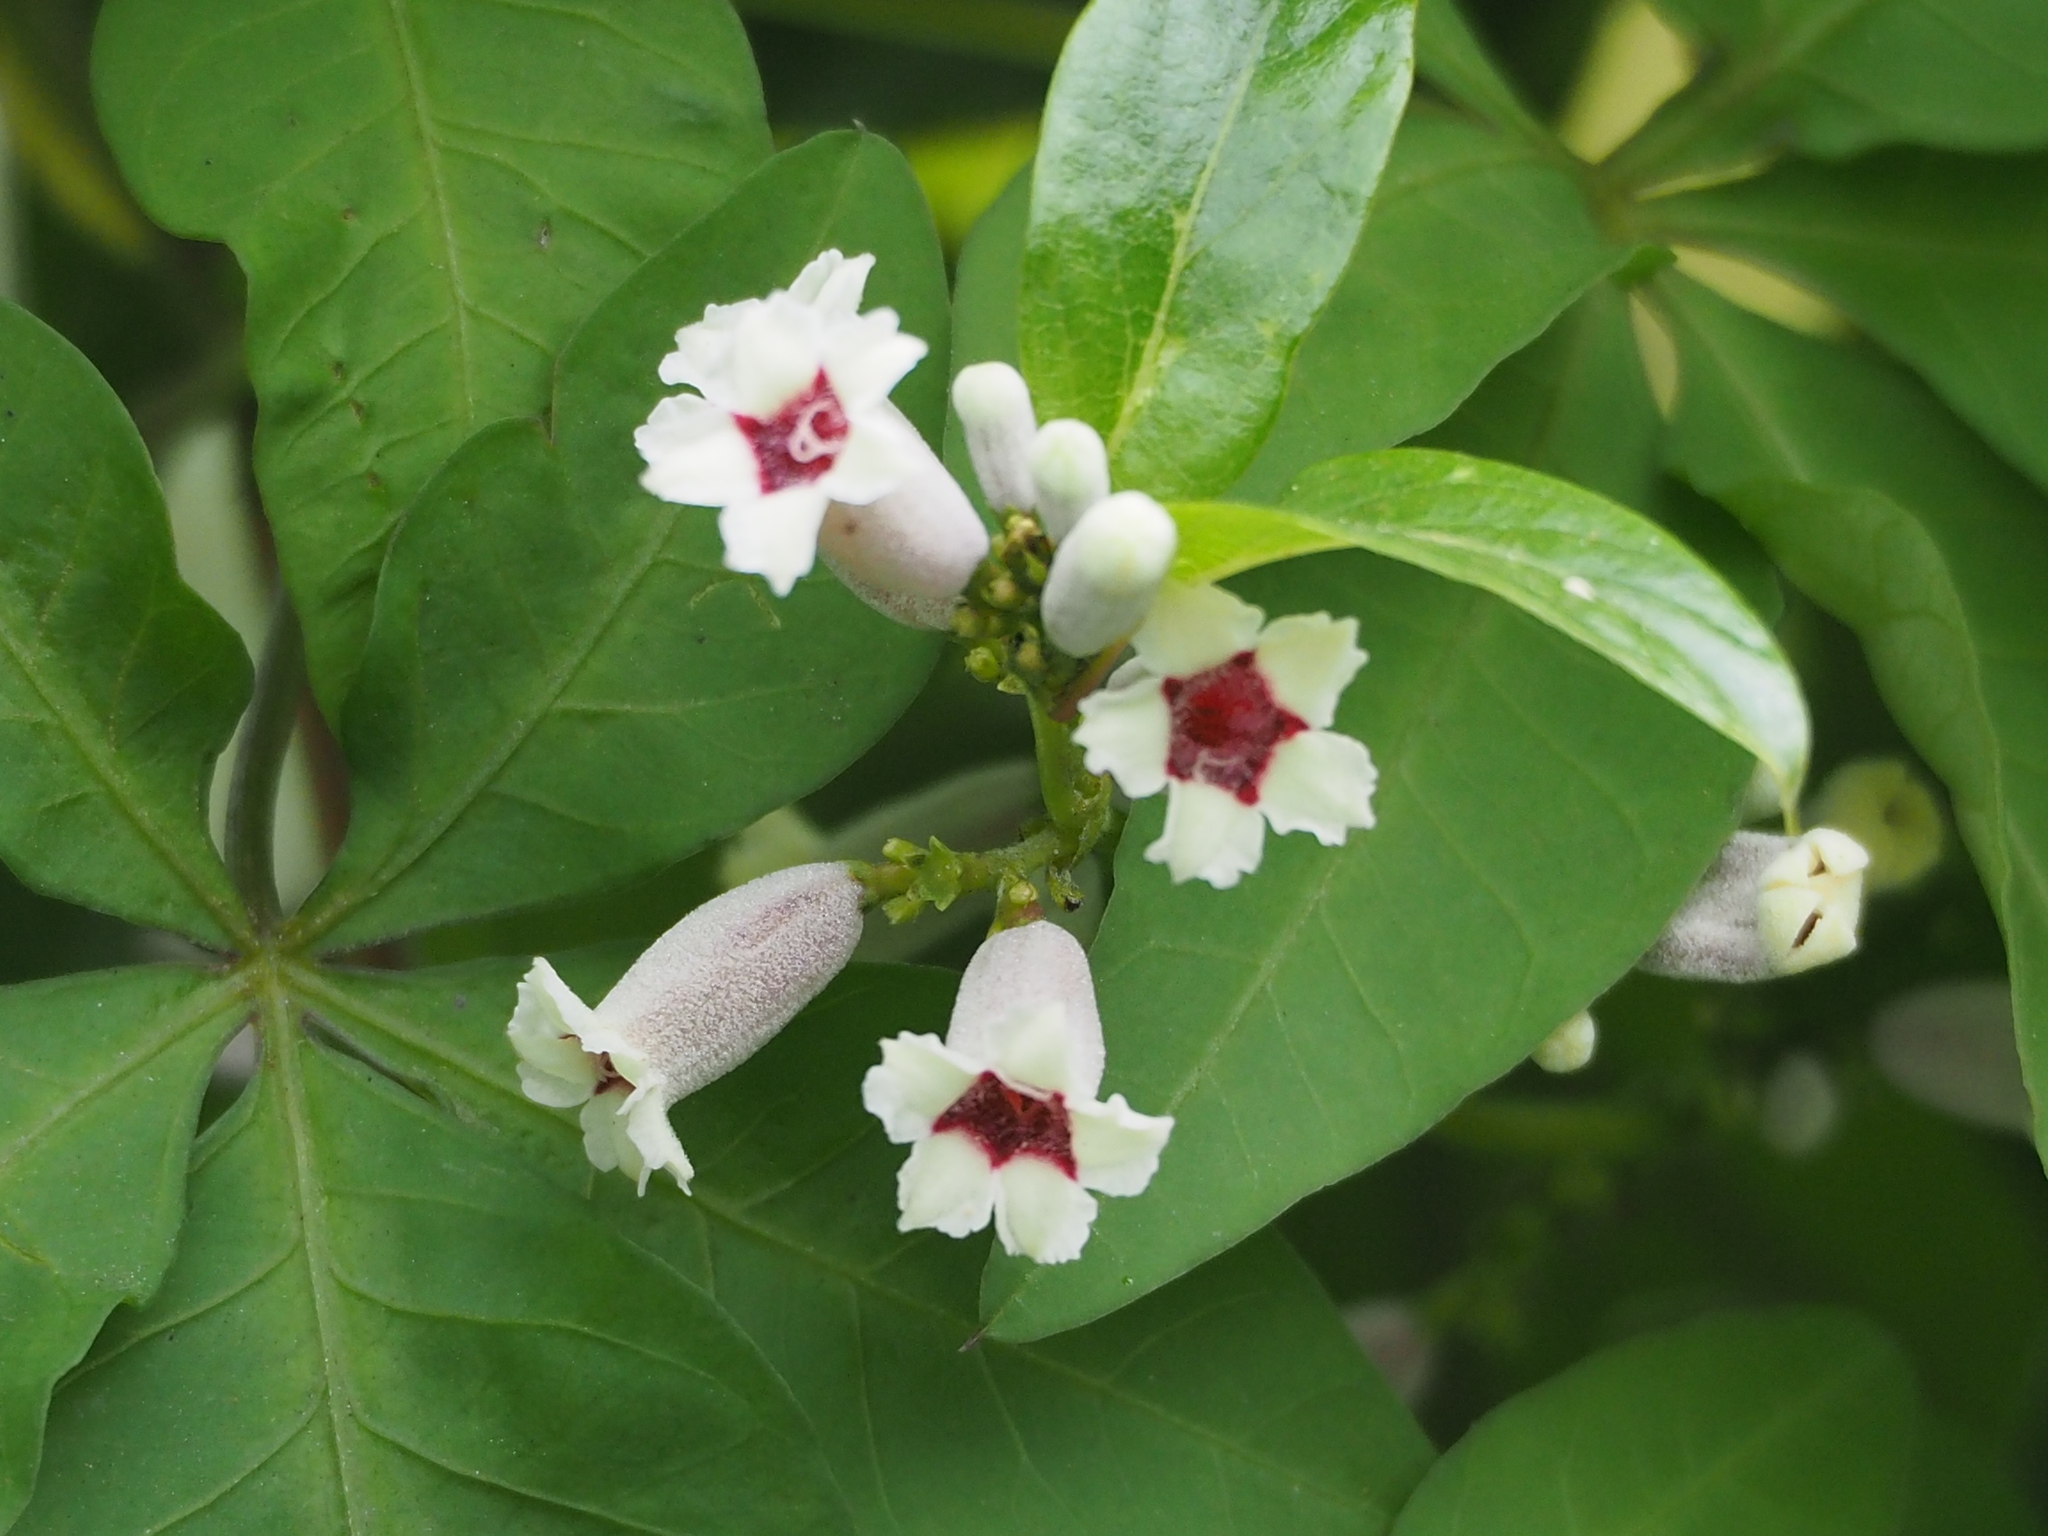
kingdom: Plantae
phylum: Tracheophyta
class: Magnoliopsida
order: Gentianales
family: Rubiaceae
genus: Paederia
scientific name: Paederia foetida
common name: Stinkvine
